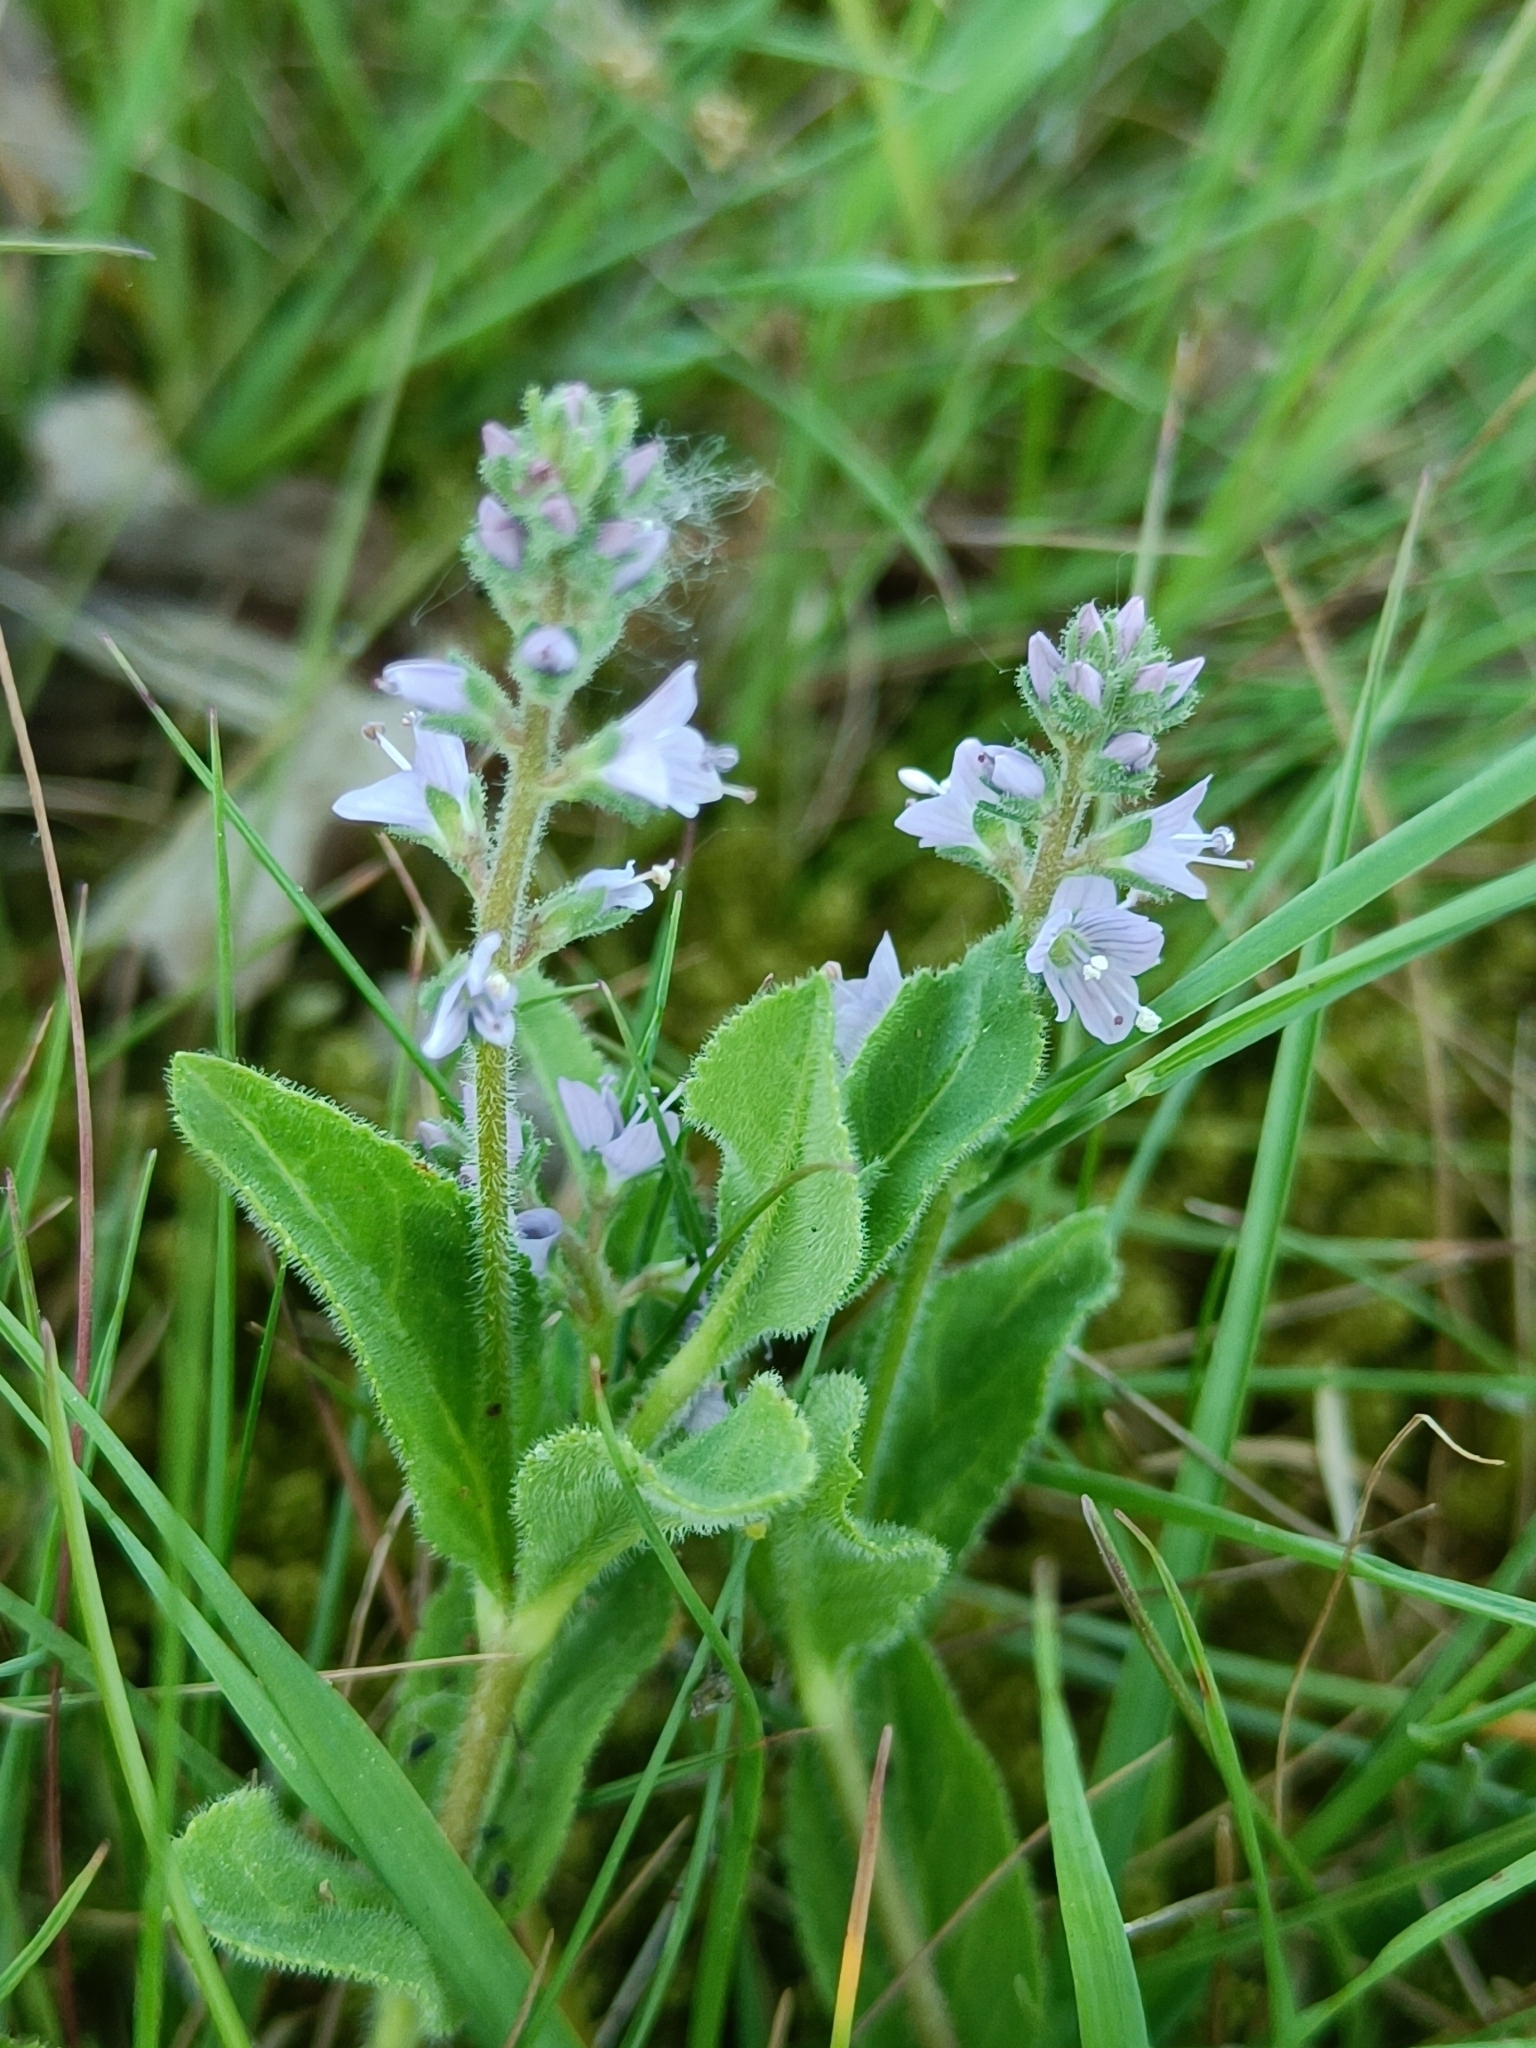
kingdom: Plantae
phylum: Tracheophyta
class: Magnoliopsida
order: Lamiales
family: Plantaginaceae
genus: Veronica
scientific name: Veronica officinalis
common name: Common speedwell
